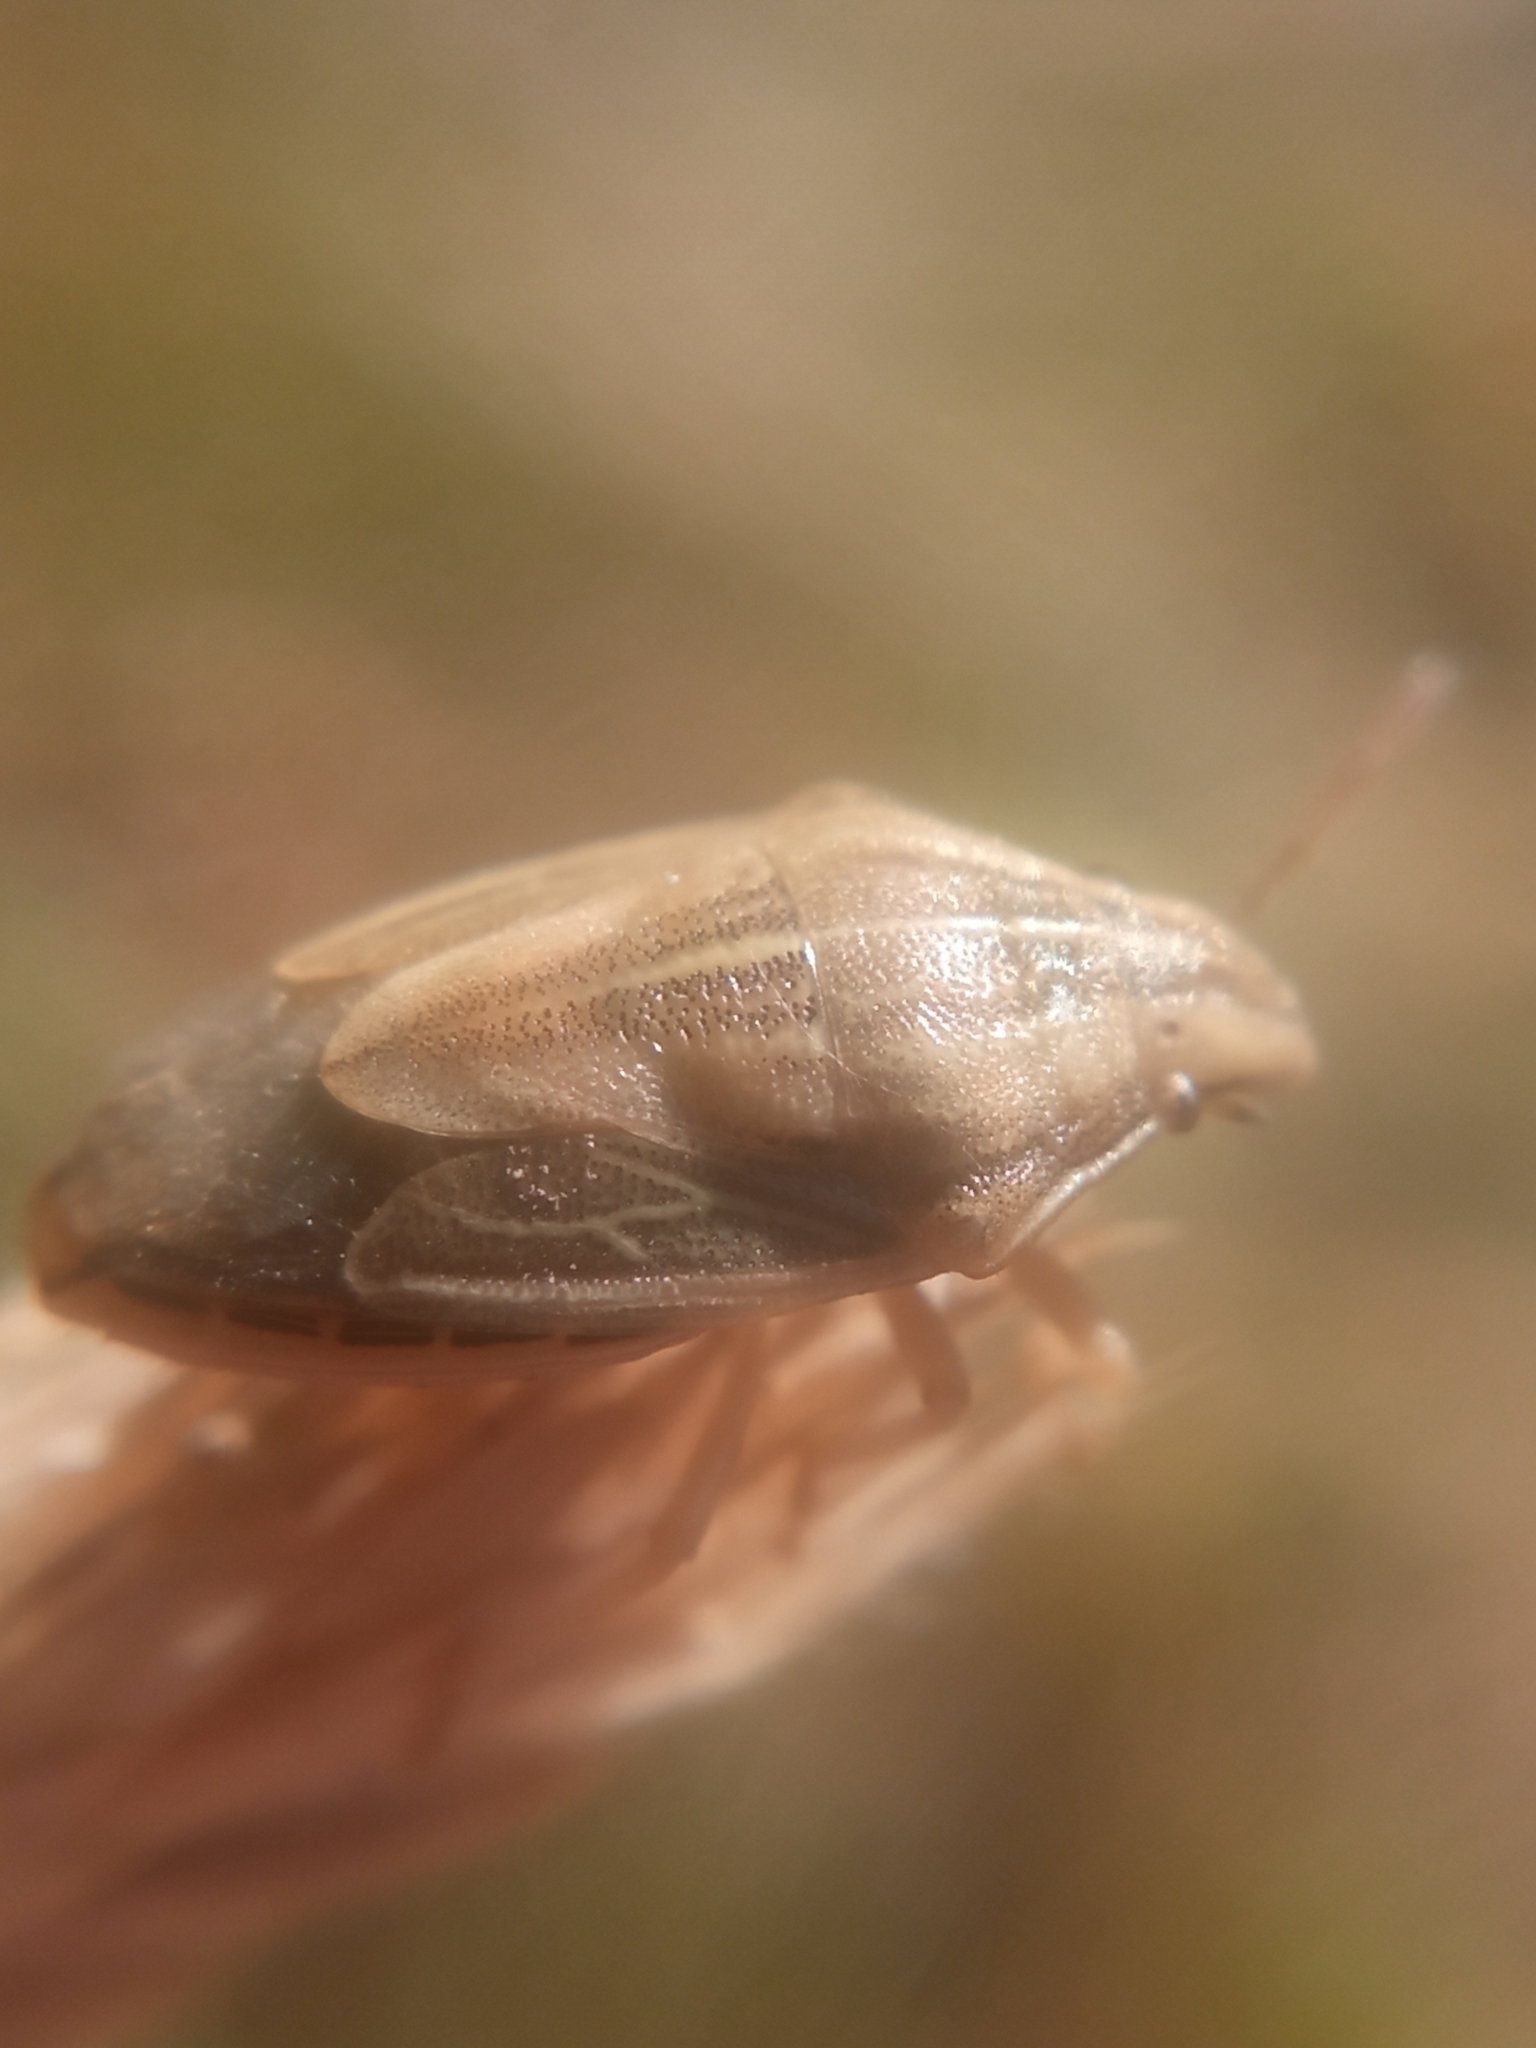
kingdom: Animalia
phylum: Arthropoda
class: Insecta
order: Hemiptera
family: Pentatomidae
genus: Aelia
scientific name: Aelia acuminata
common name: Bishop's mitre
